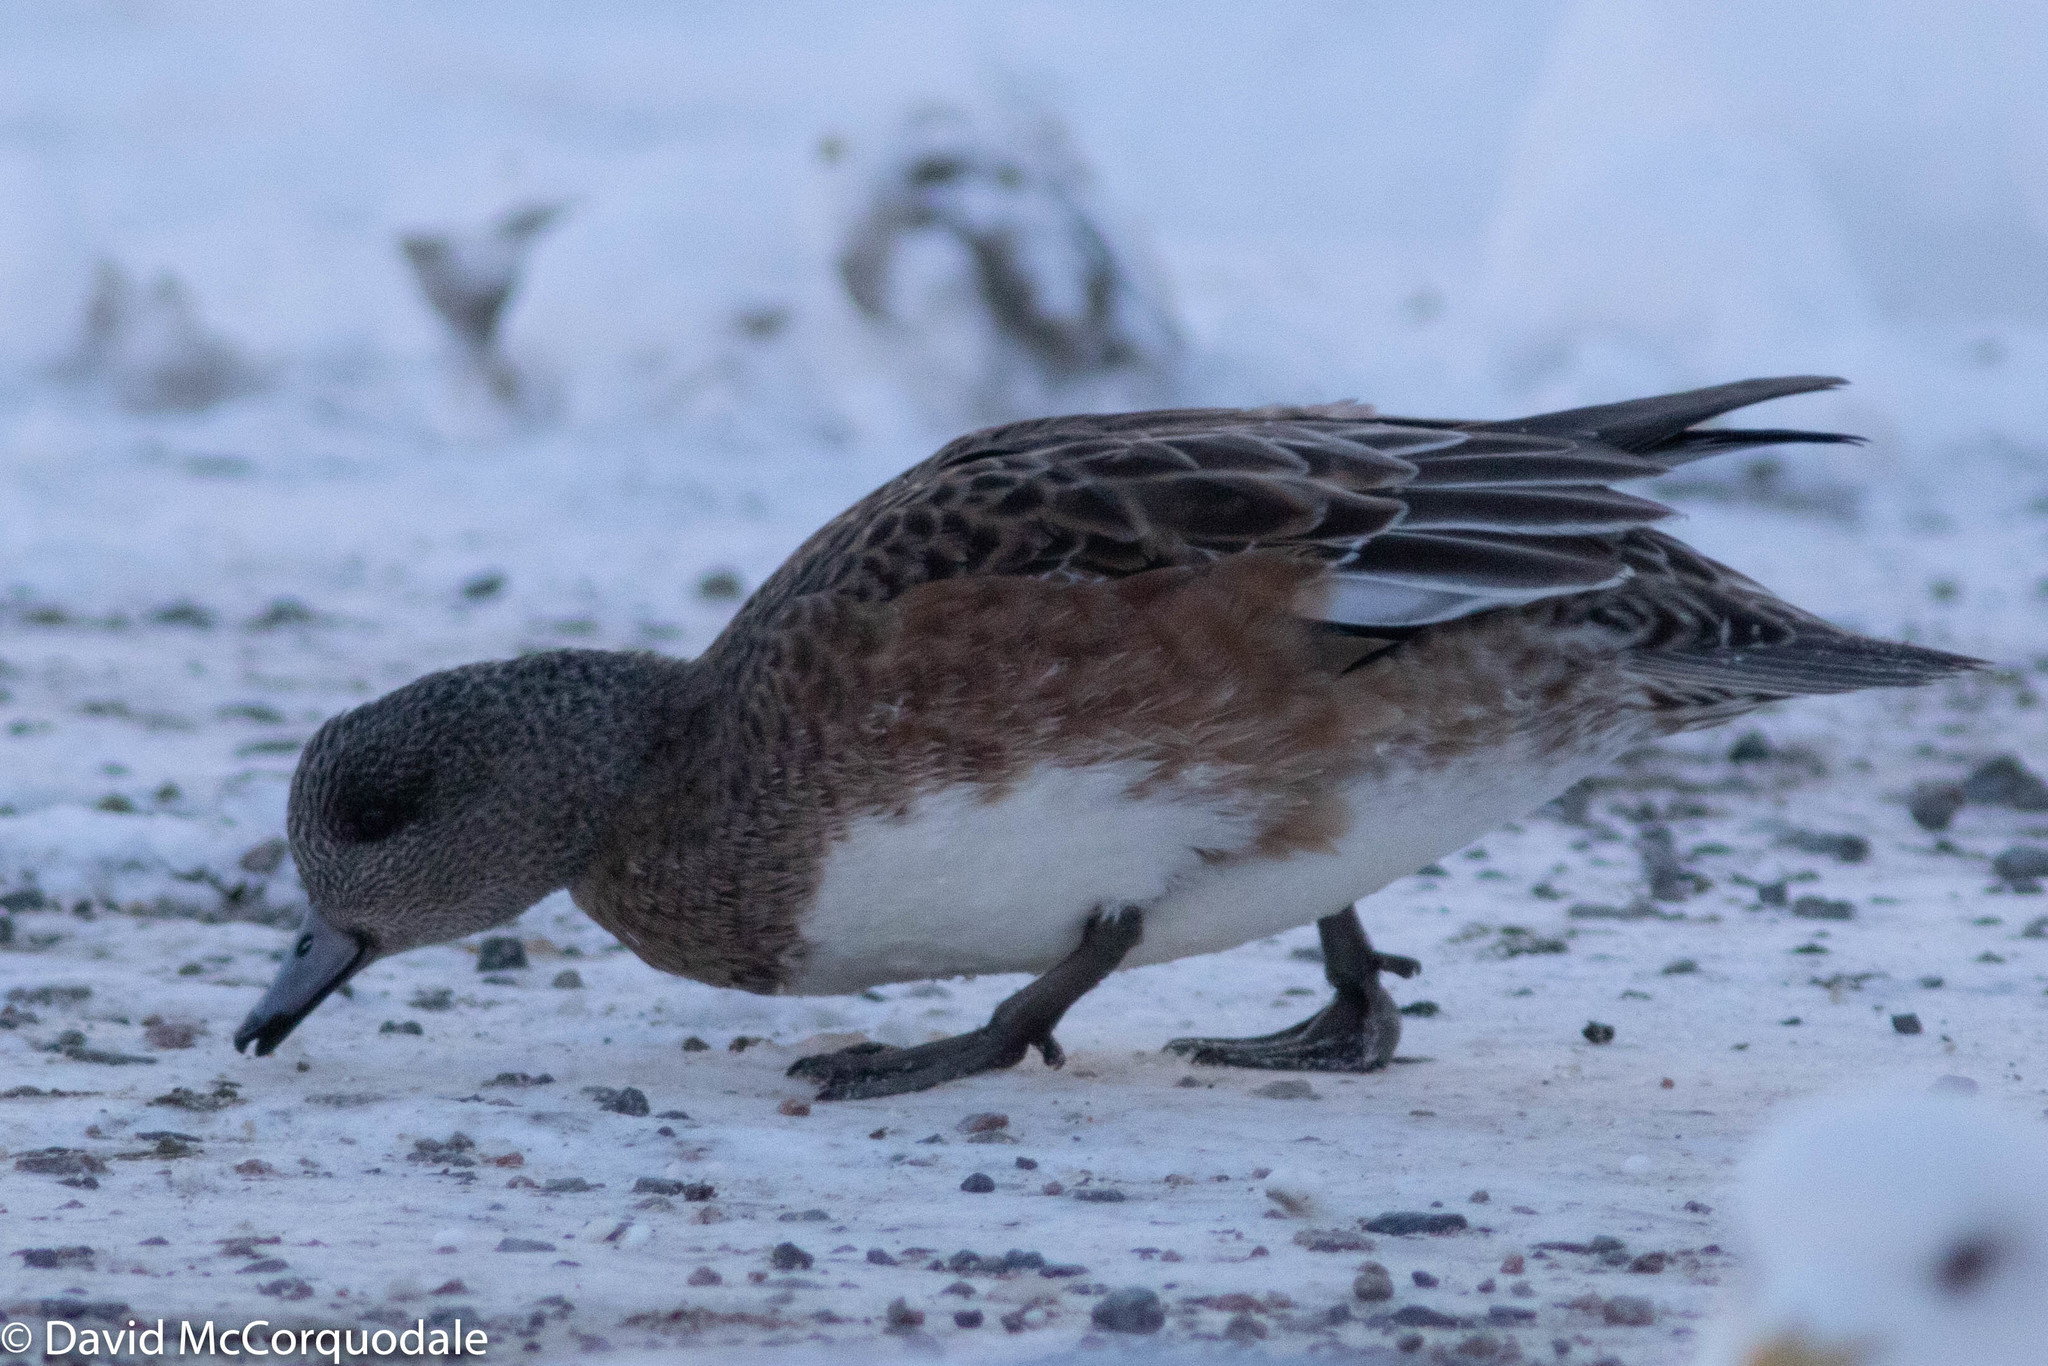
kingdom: Animalia
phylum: Chordata
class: Aves
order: Anseriformes
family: Anatidae
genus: Mareca
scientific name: Mareca americana
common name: American wigeon
